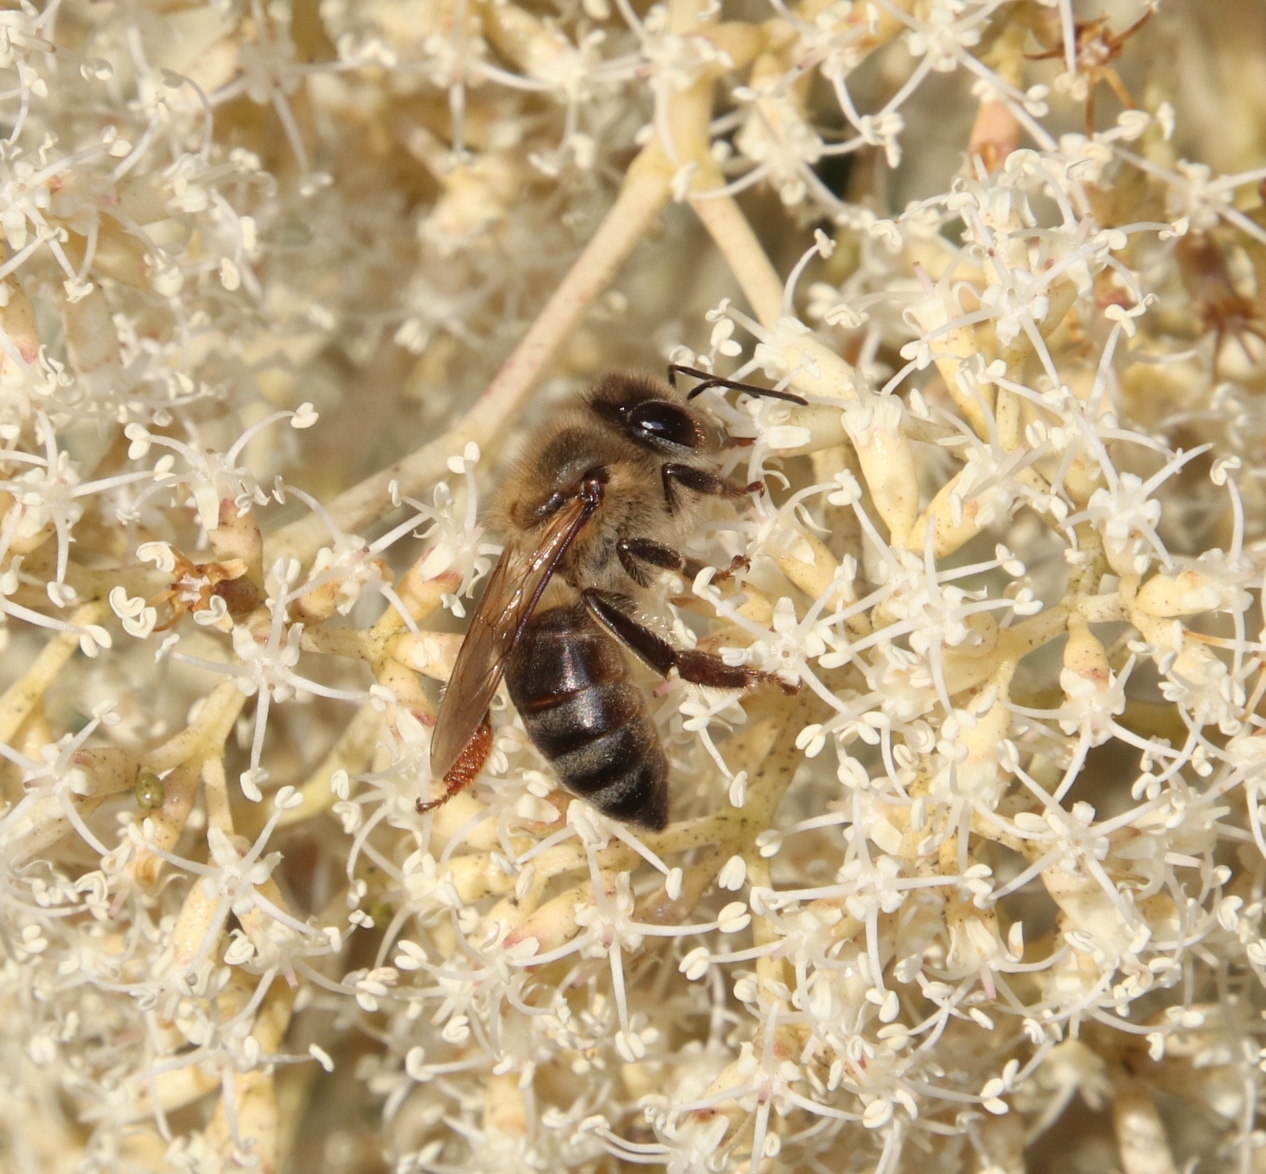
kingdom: Animalia
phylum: Arthropoda
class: Insecta
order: Hymenoptera
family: Apidae
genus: Apis
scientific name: Apis mellifera
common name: Honey bee
